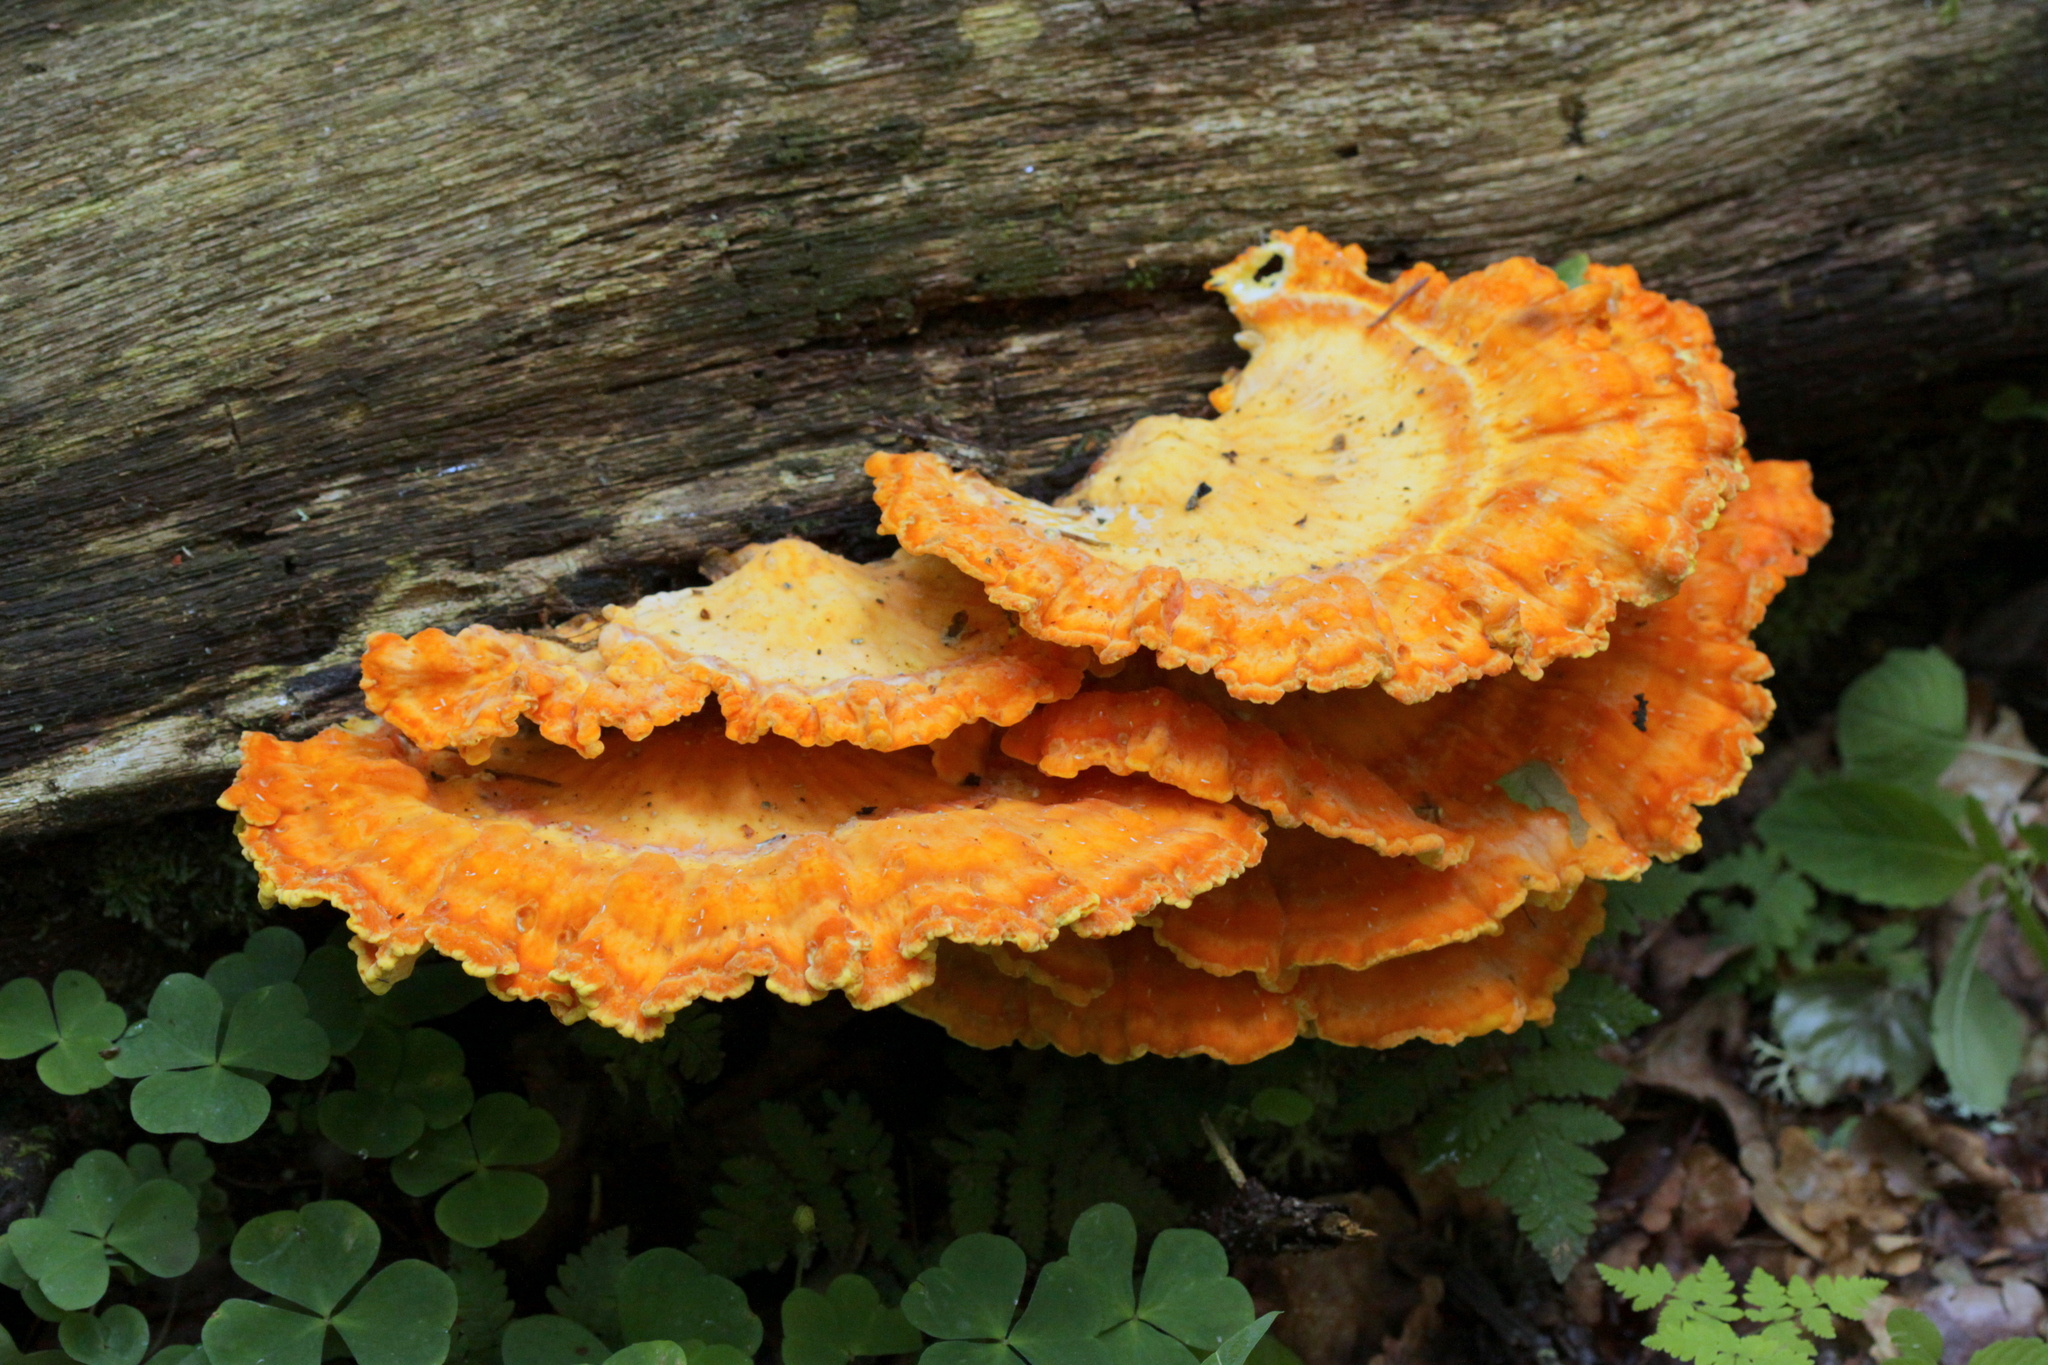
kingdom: Fungi
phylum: Basidiomycota
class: Agaricomycetes
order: Polyporales
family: Laetiporaceae
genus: Laetiporus
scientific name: Laetiporus sulphureus
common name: Chicken of the woods
